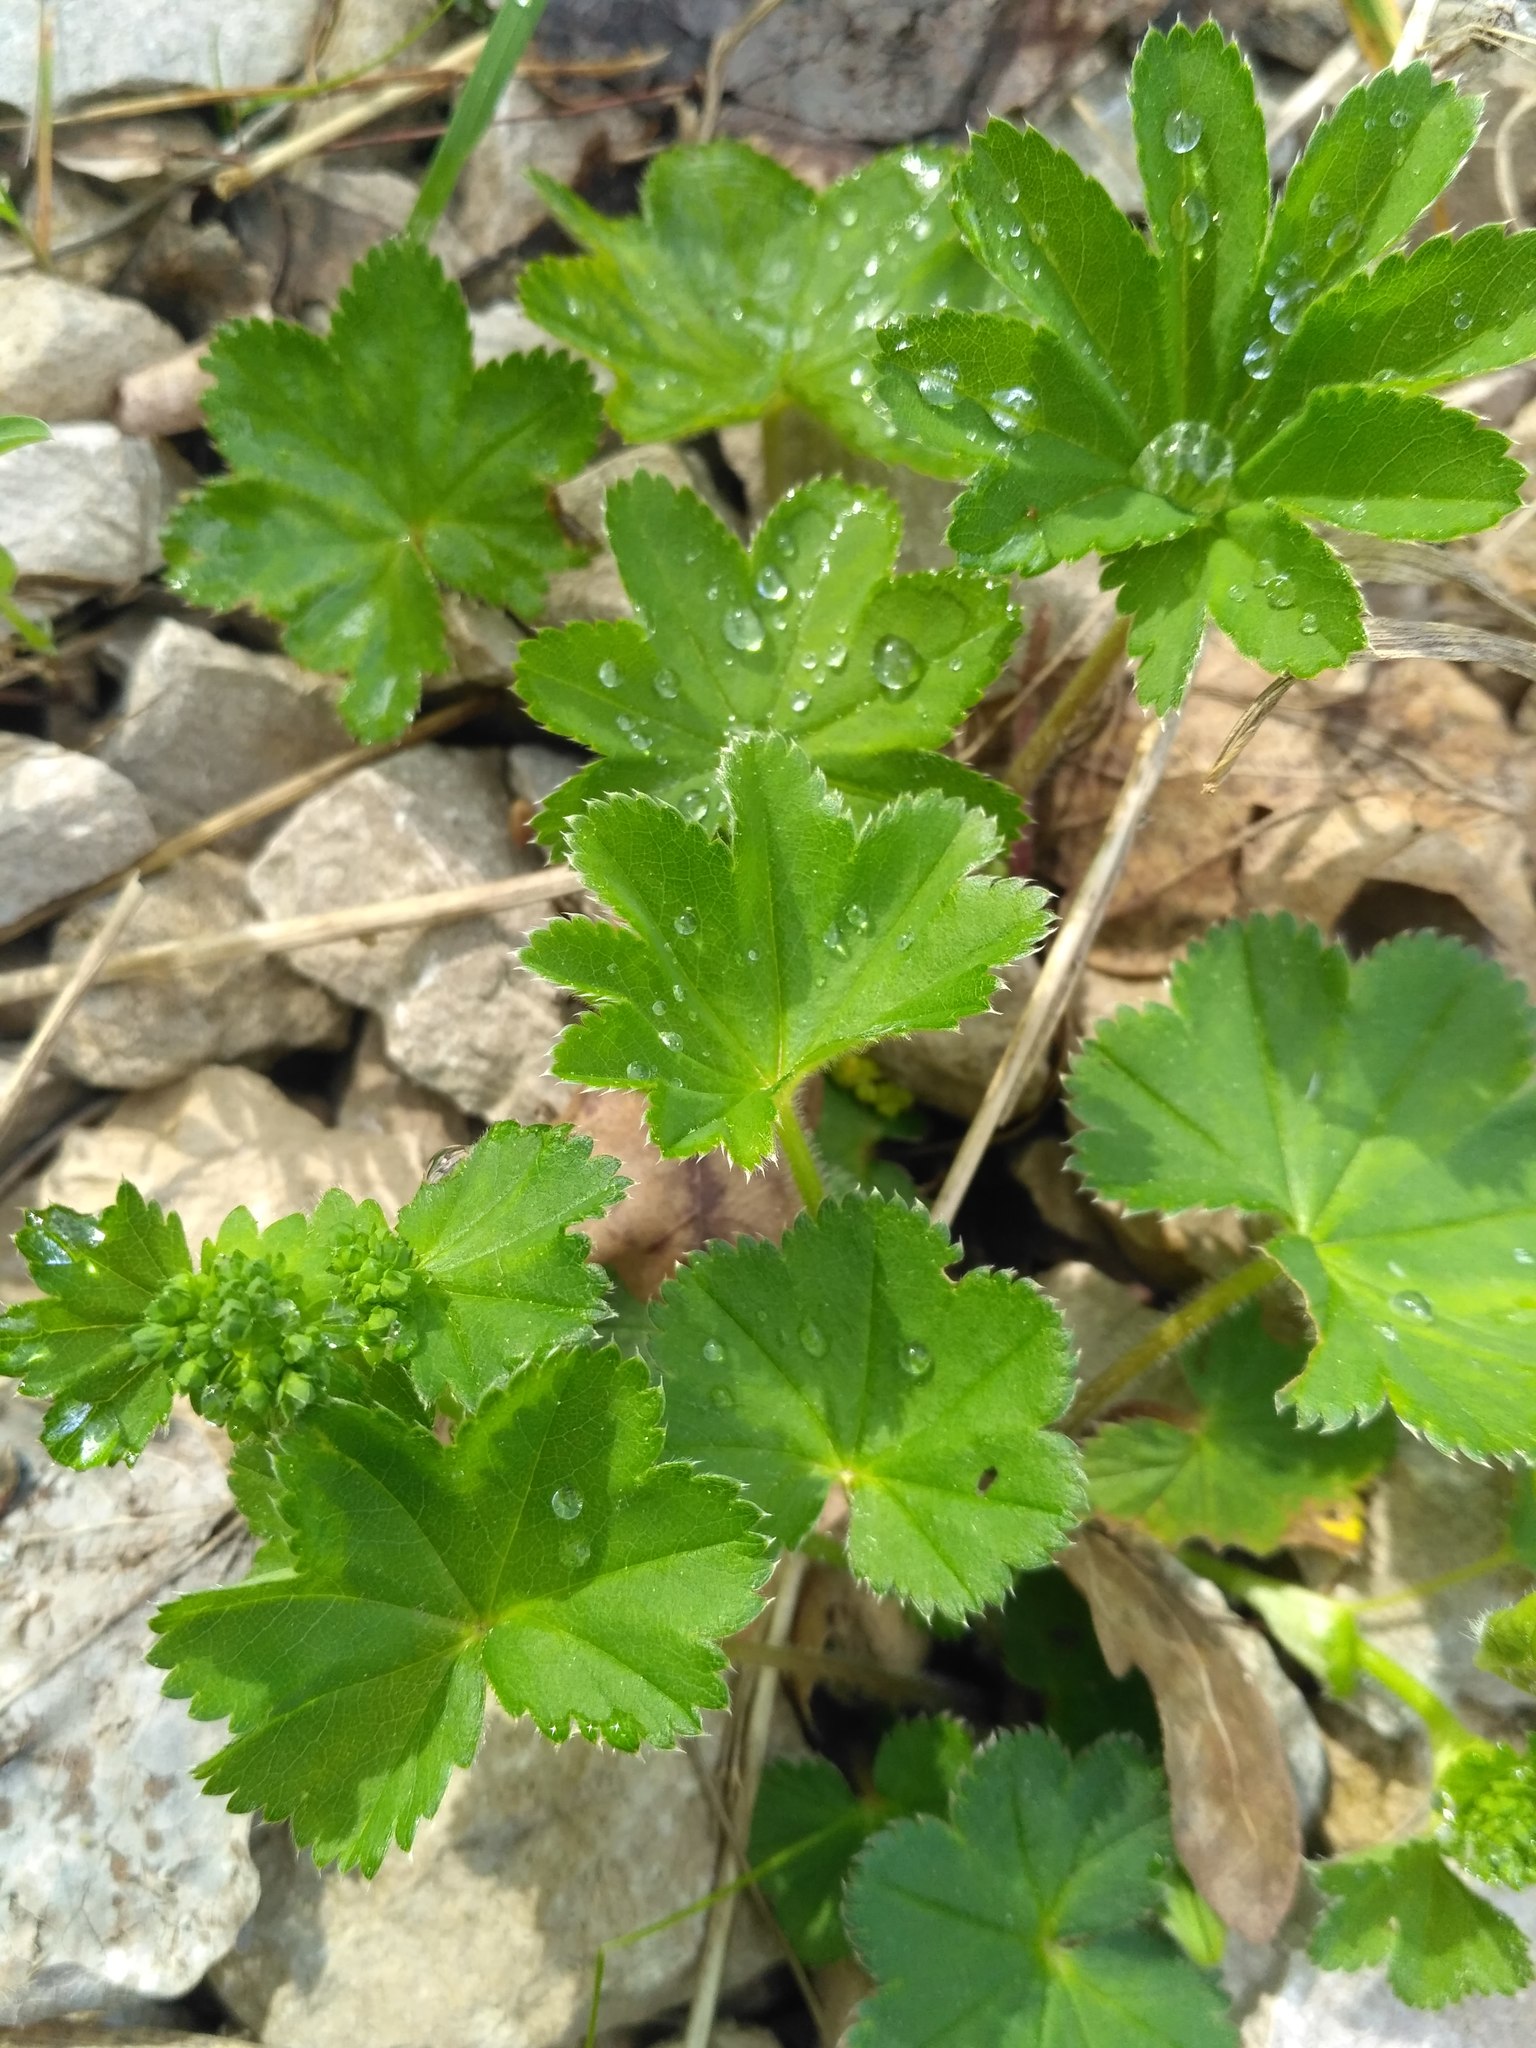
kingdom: Plantae
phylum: Tracheophyta
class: Magnoliopsida
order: Rosales
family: Rosaceae
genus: Alchemilla
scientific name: Alchemilla
